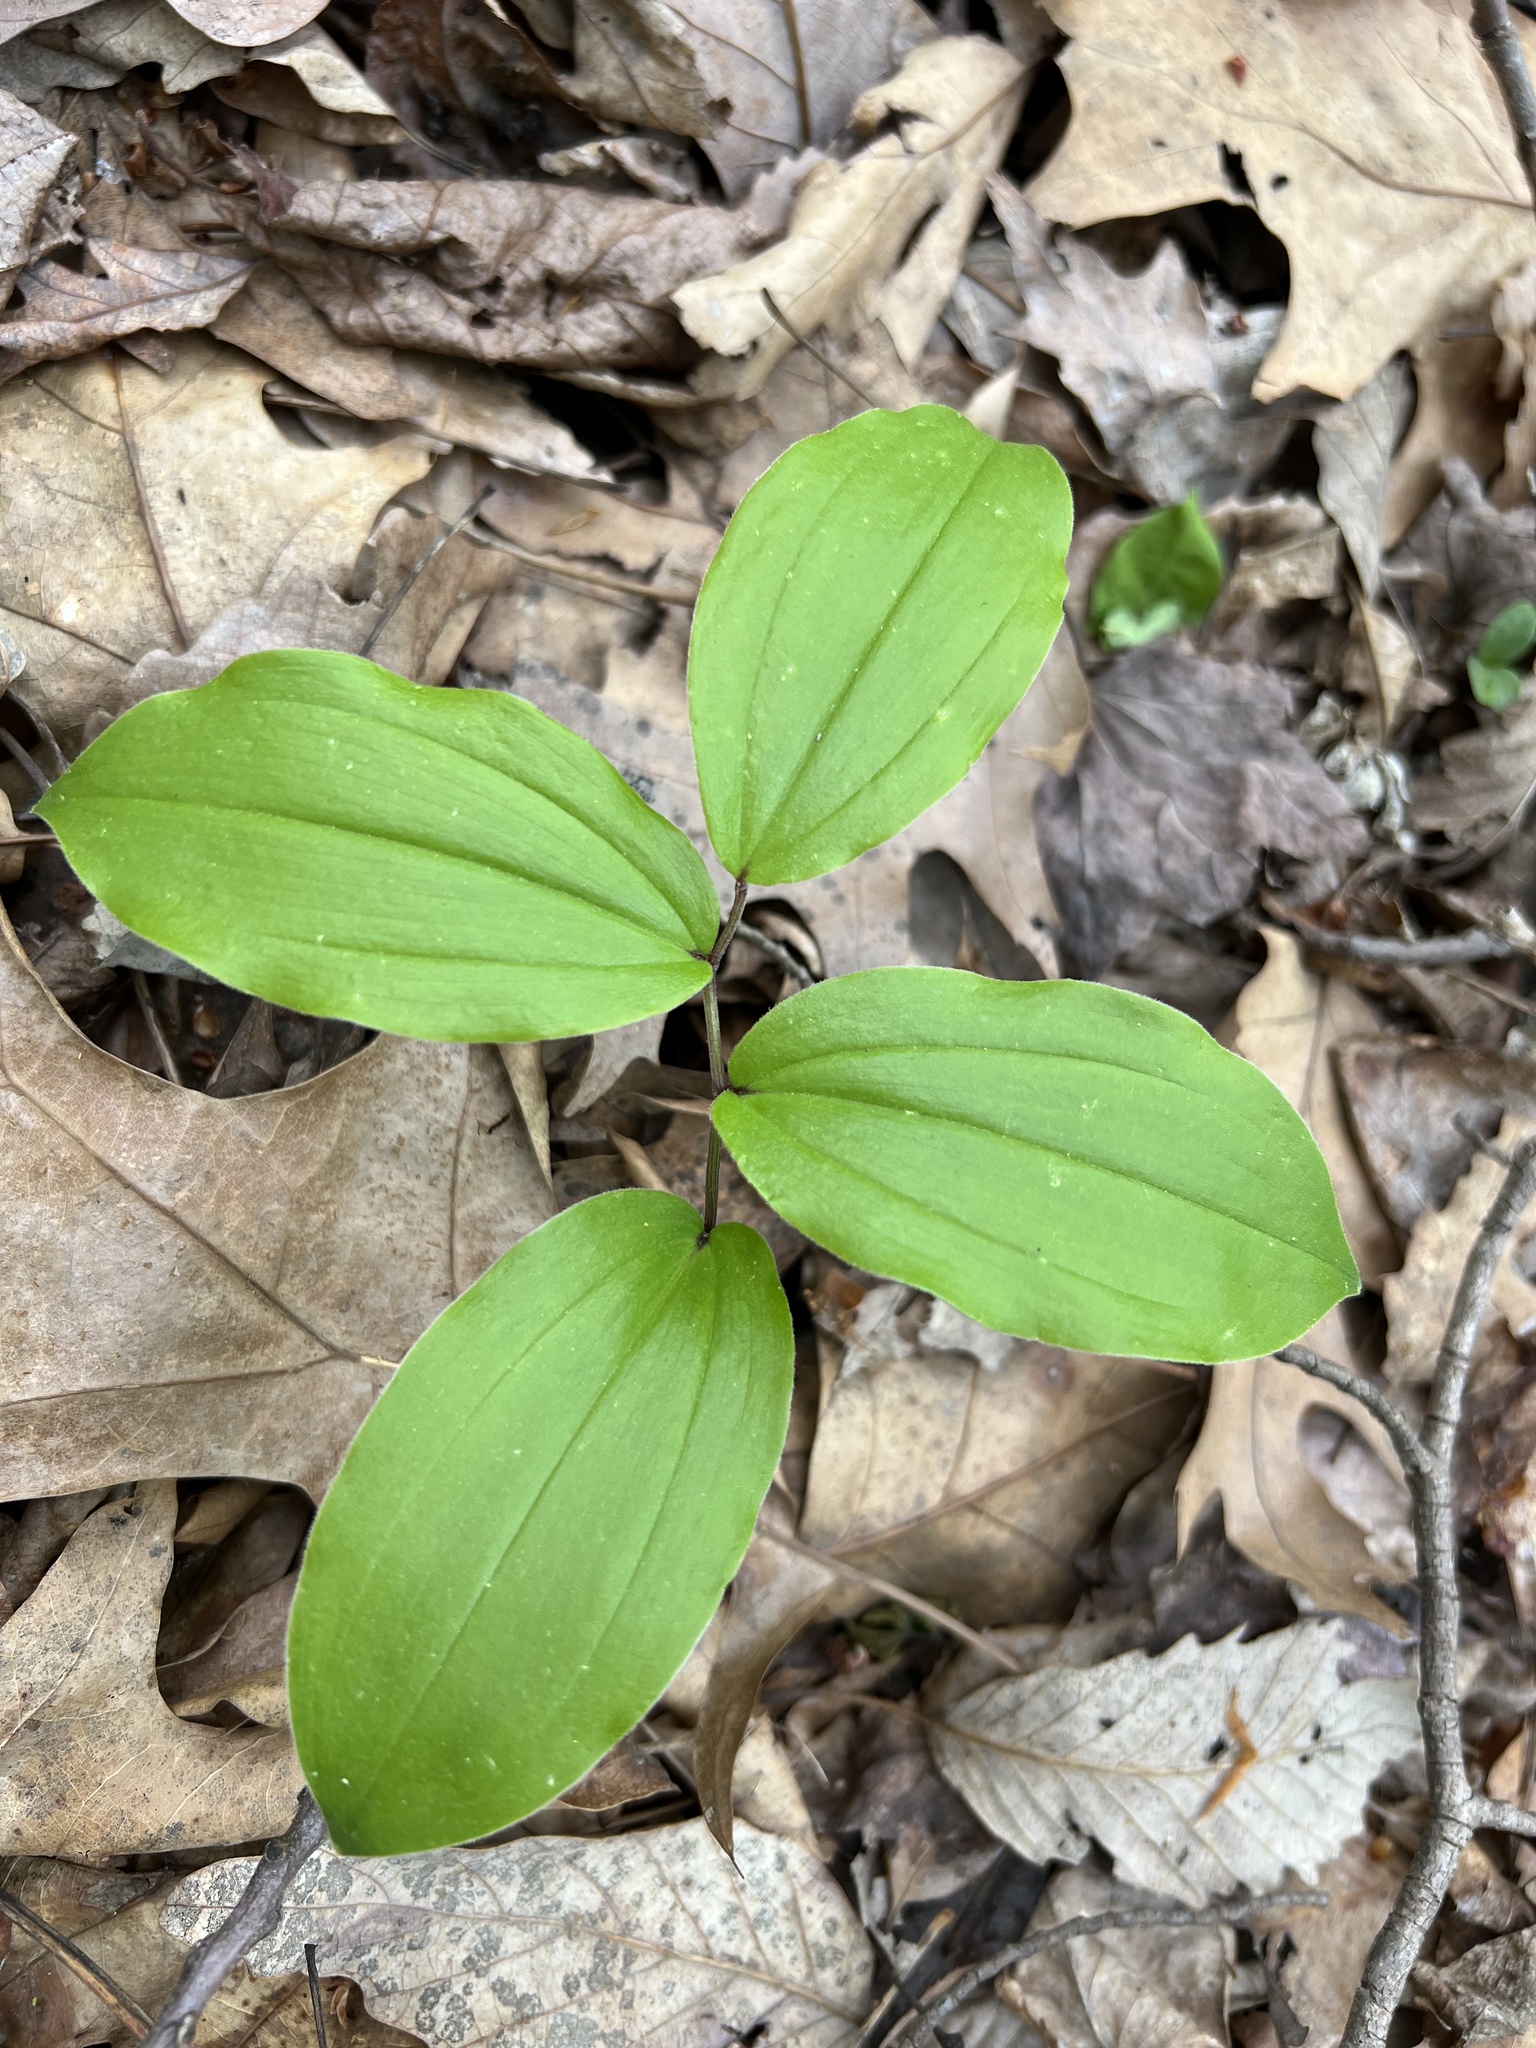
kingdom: Plantae
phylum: Tracheophyta
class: Liliopsida
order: Asparagales
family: Asparagaceae
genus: Maianthemum
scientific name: Maianthemum racemosum
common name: False spikenard
